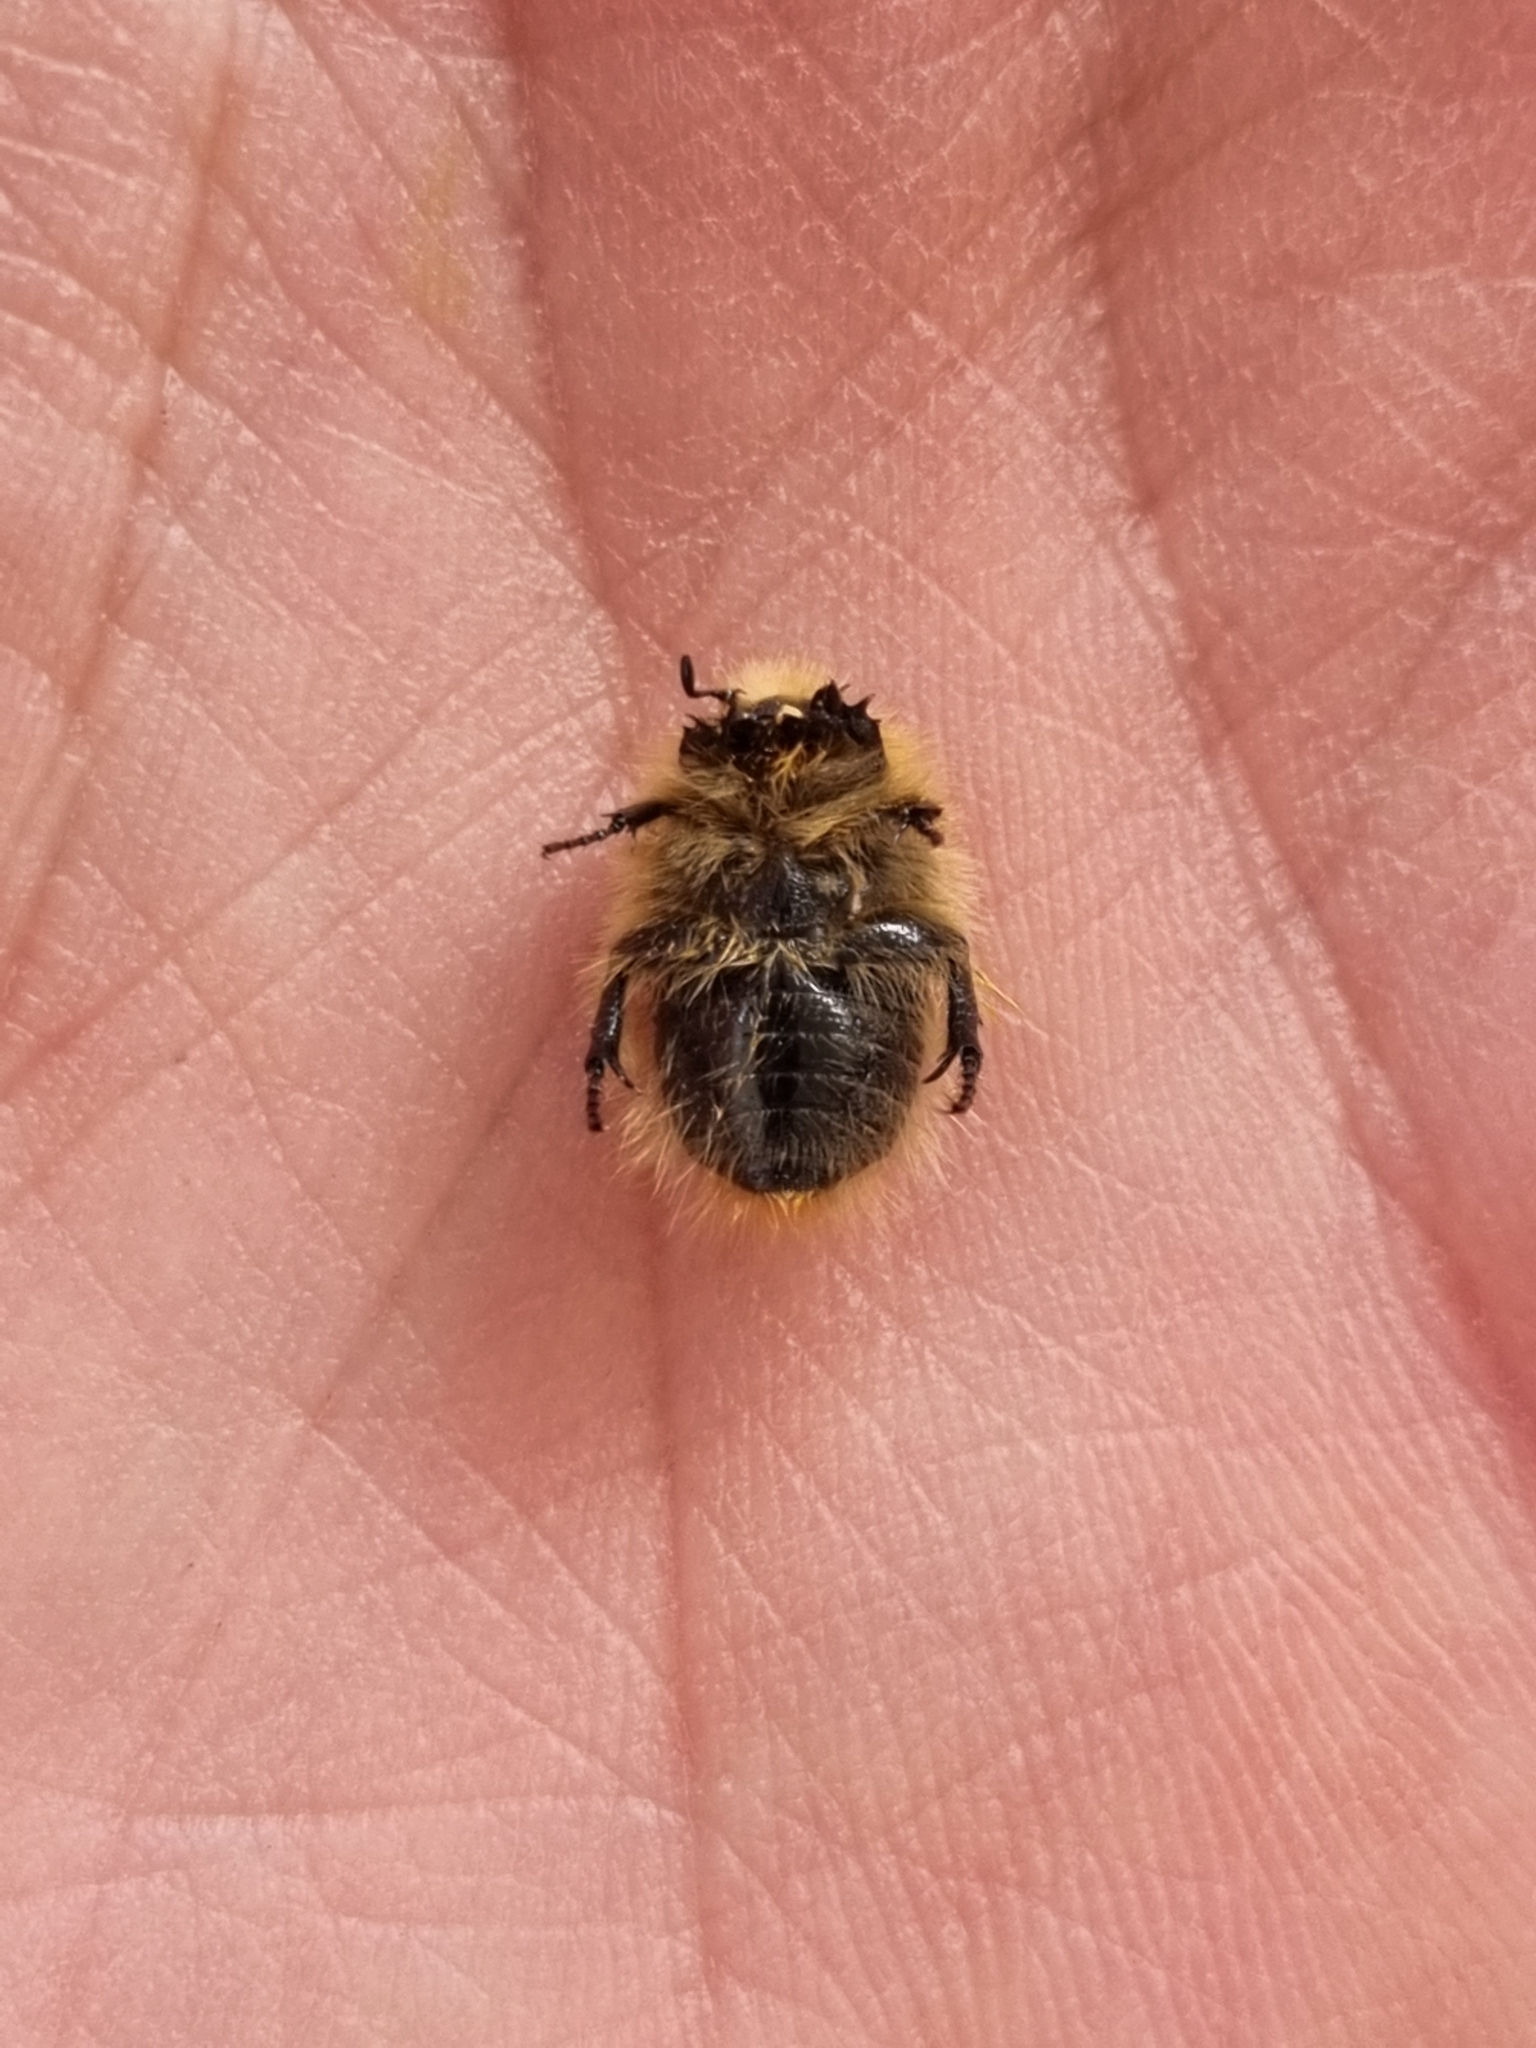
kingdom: Animalia
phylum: Arthropoda
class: Insecta
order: Coleoptera
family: Scarabaeidae
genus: Tropinota
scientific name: Tropinota hirta
